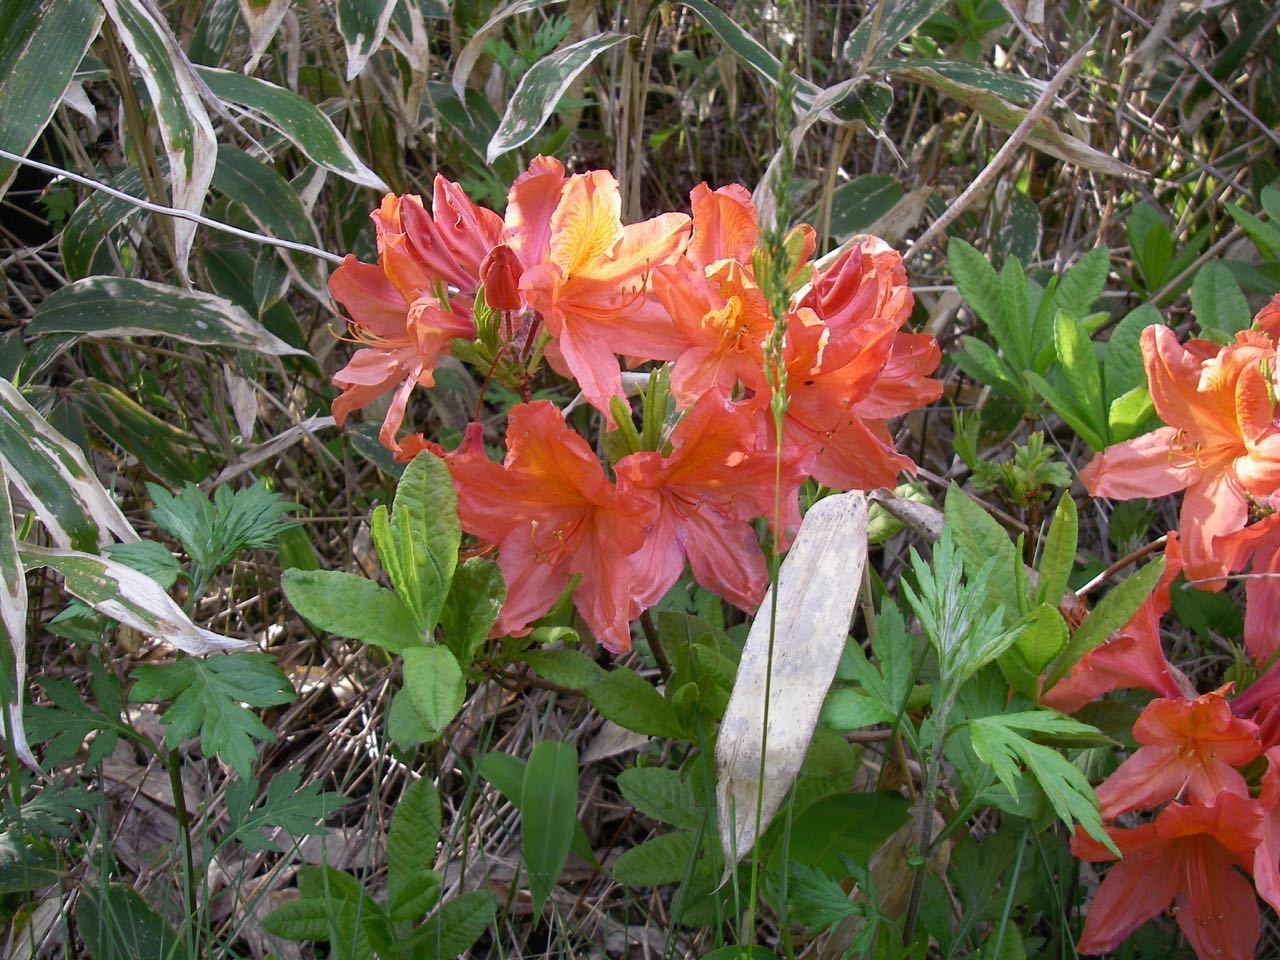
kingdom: Plantae
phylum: Tracheophyta
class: Magnoliopsida
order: Ericales
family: Ericaceae
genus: Rhododendron
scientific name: Rhododendron japonicum
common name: Japanese azalea
